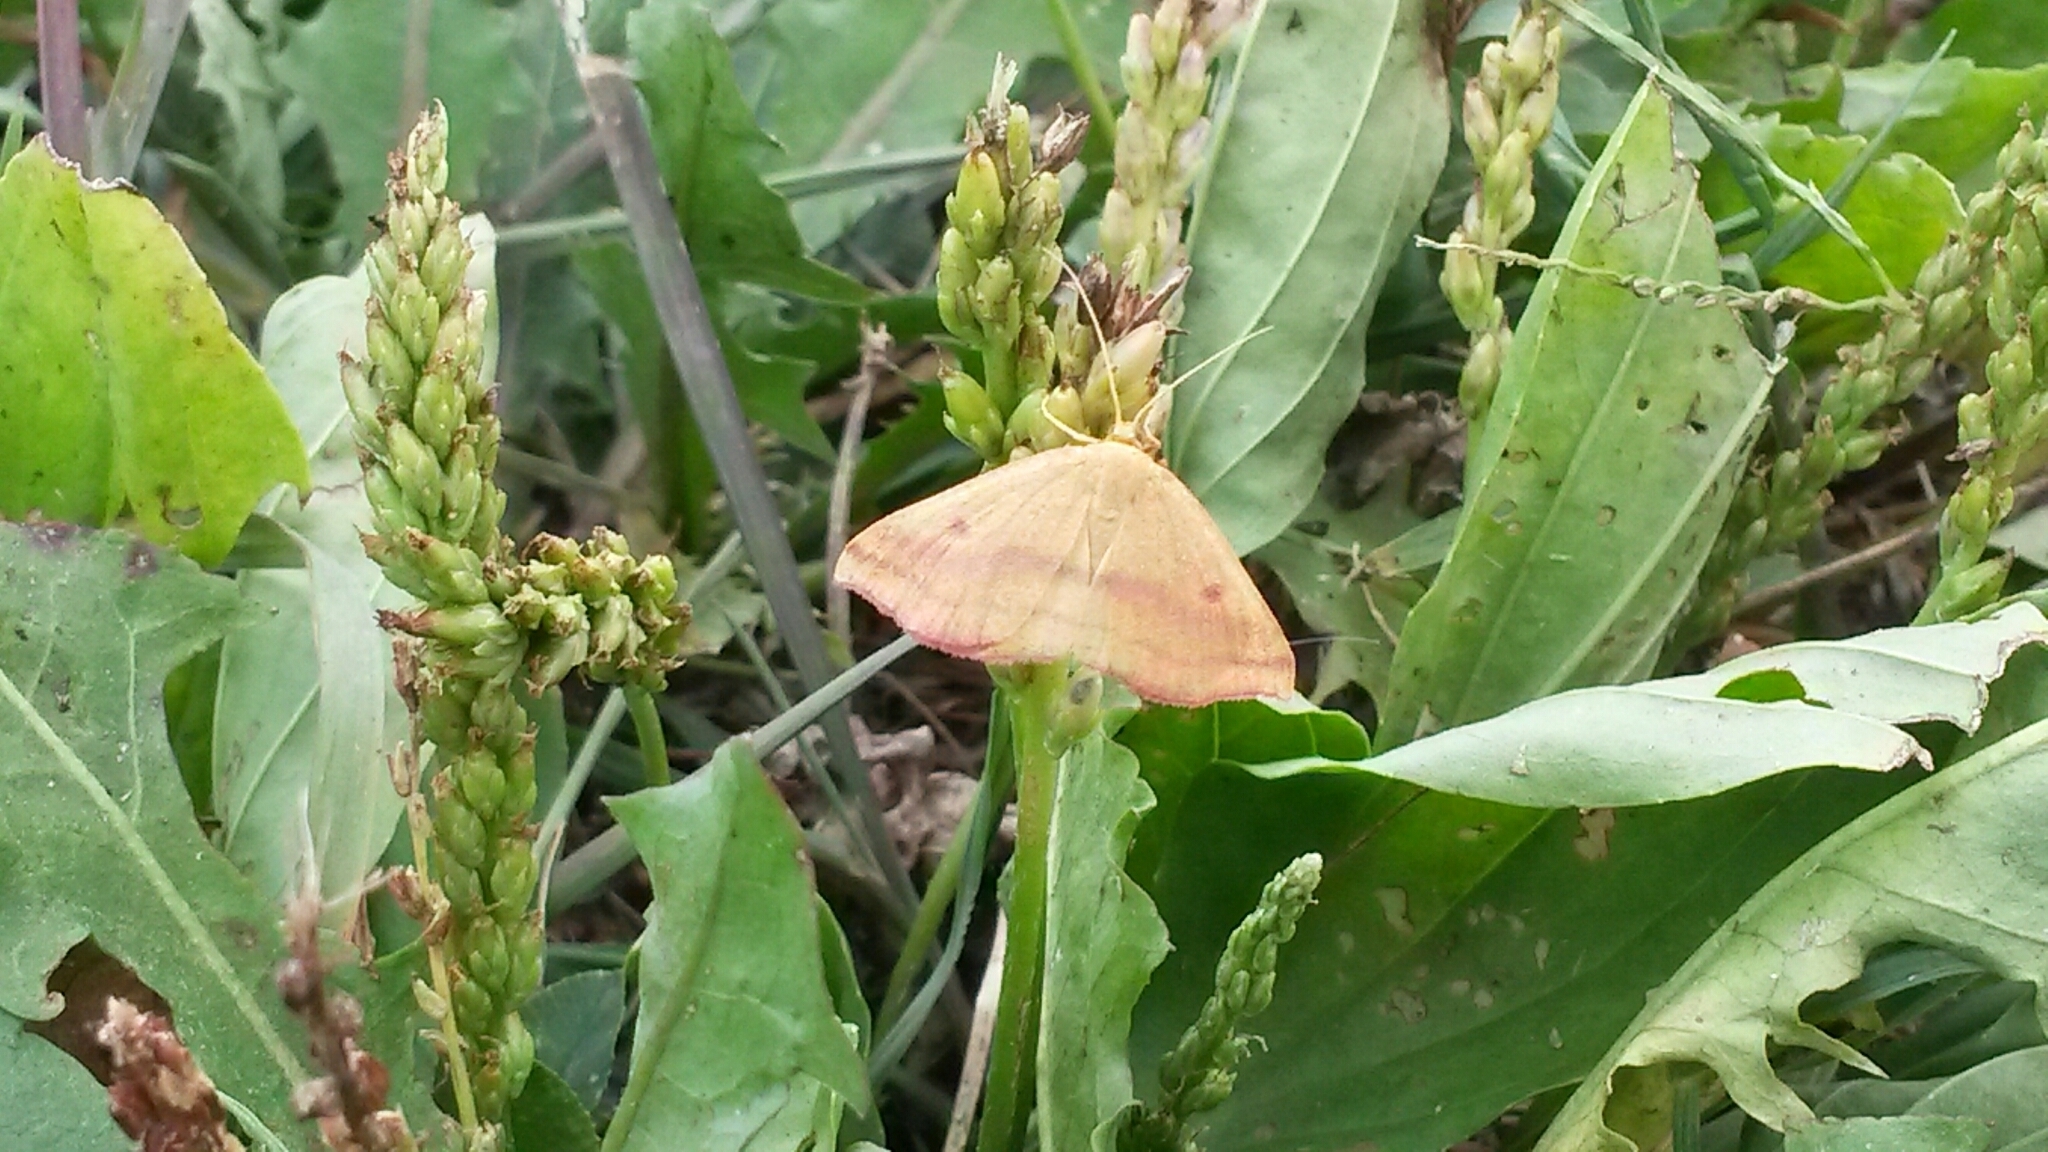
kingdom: Animalia
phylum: Arthropoda
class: Insecta
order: Lepidoptera
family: Geometridae
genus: Haematopis
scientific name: Haematopis grataria
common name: Chickweed geometer
